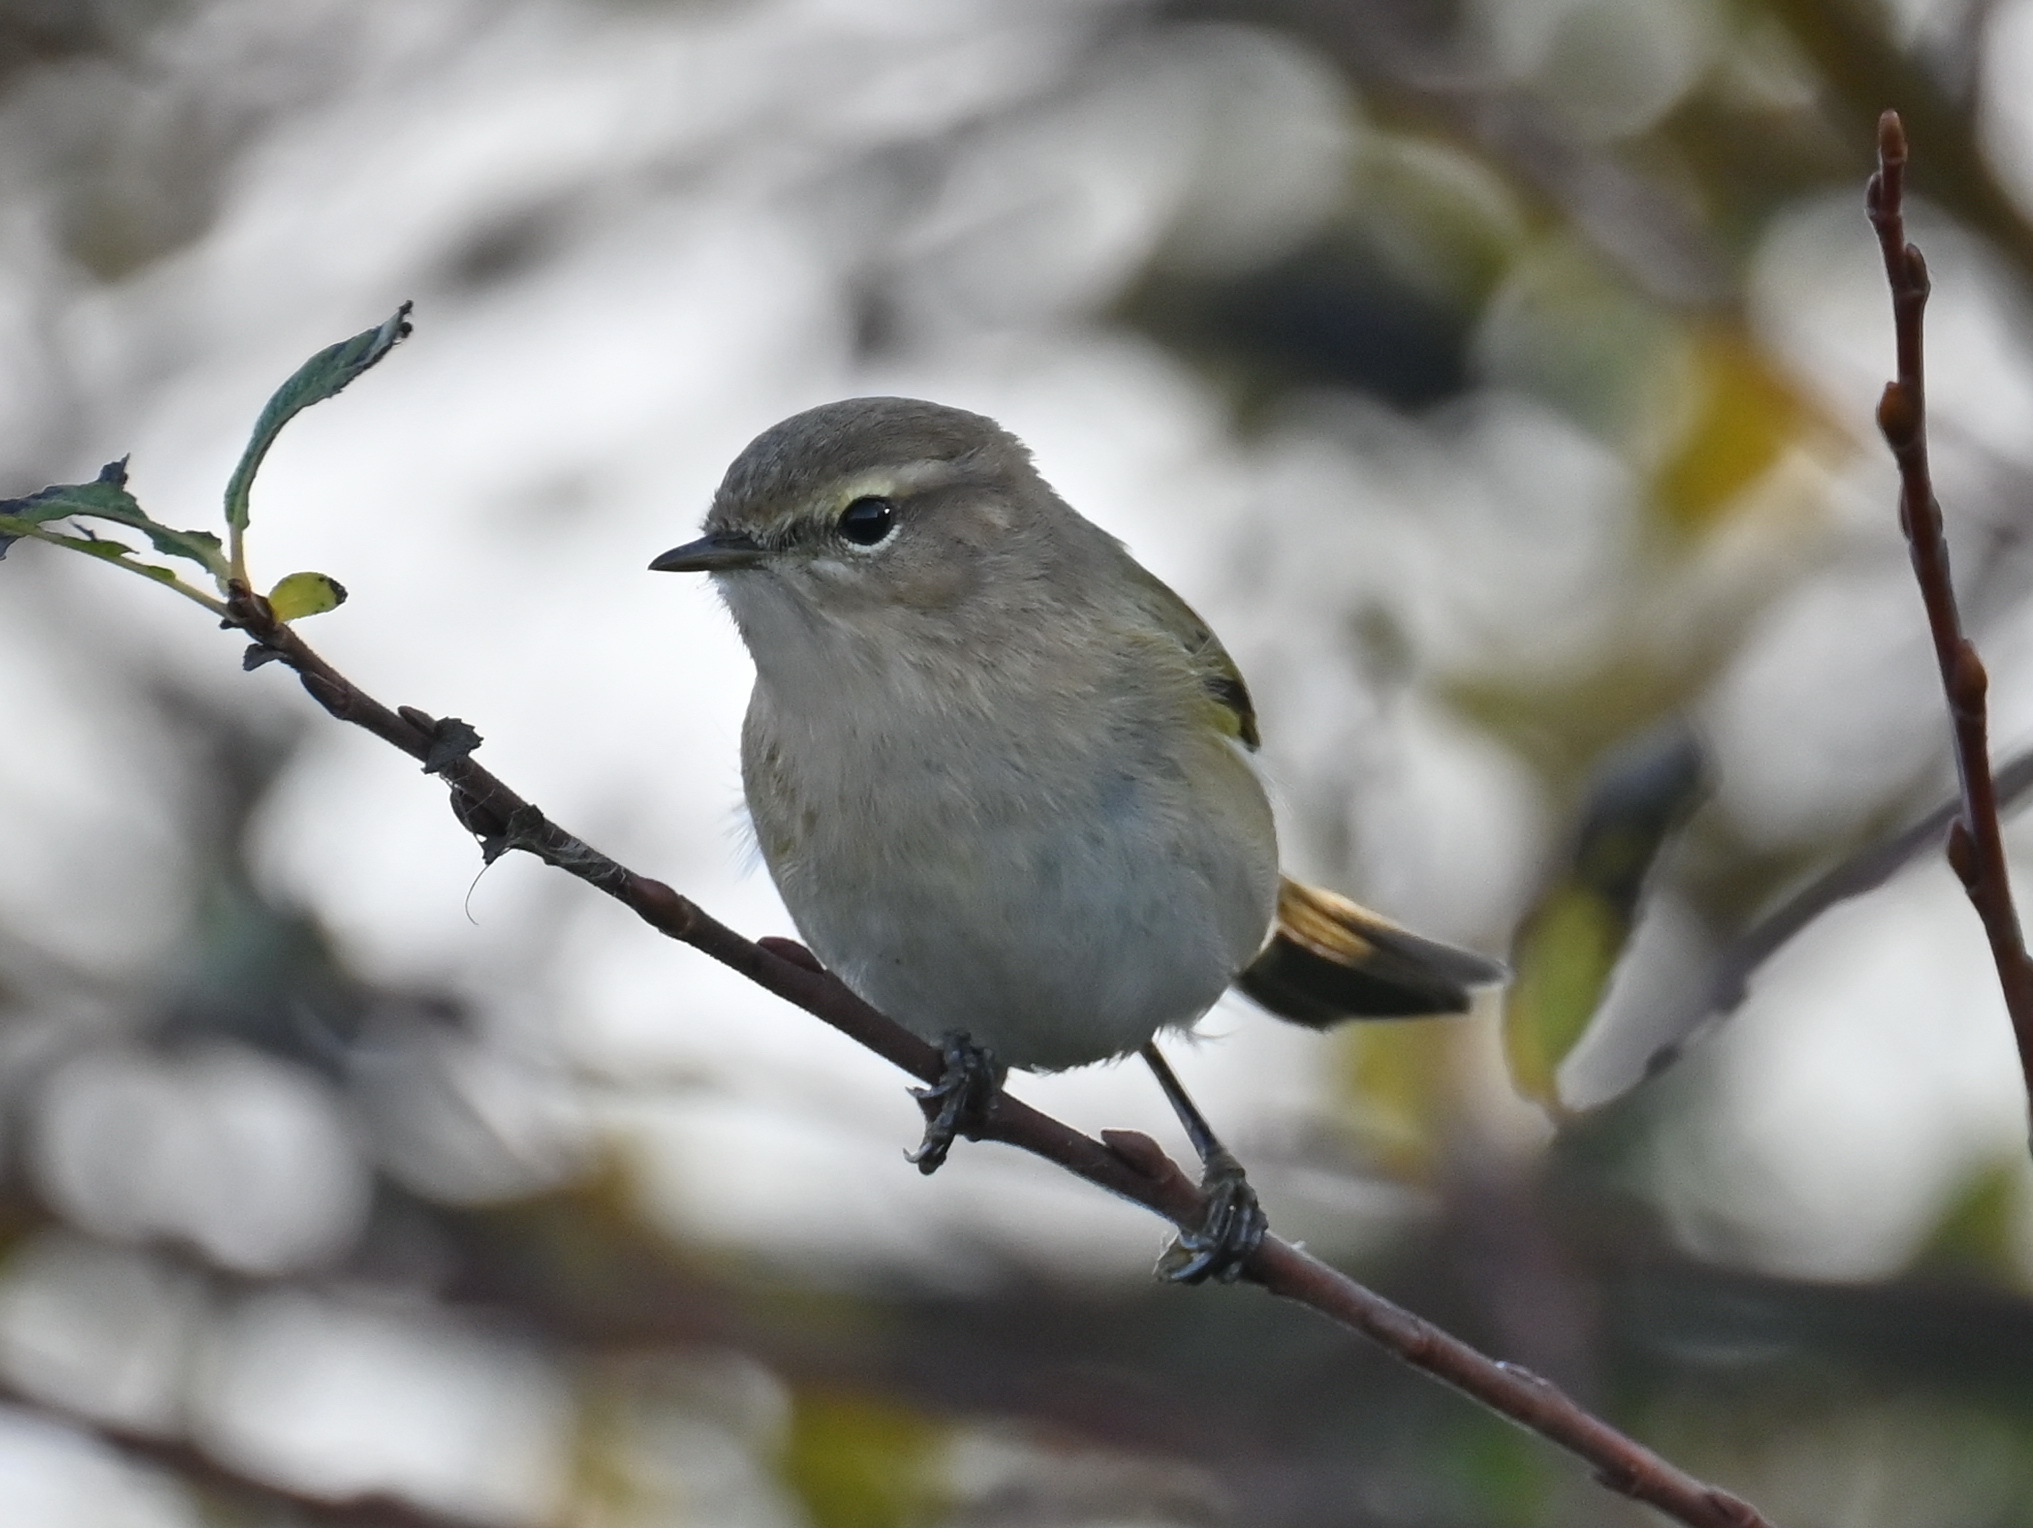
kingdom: Animalia
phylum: Chordata
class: Aves
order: Passeriformes
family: Phylloscopidae
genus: Phylloscopus
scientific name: Phylloscopus collybita
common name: Common chiffchaff
